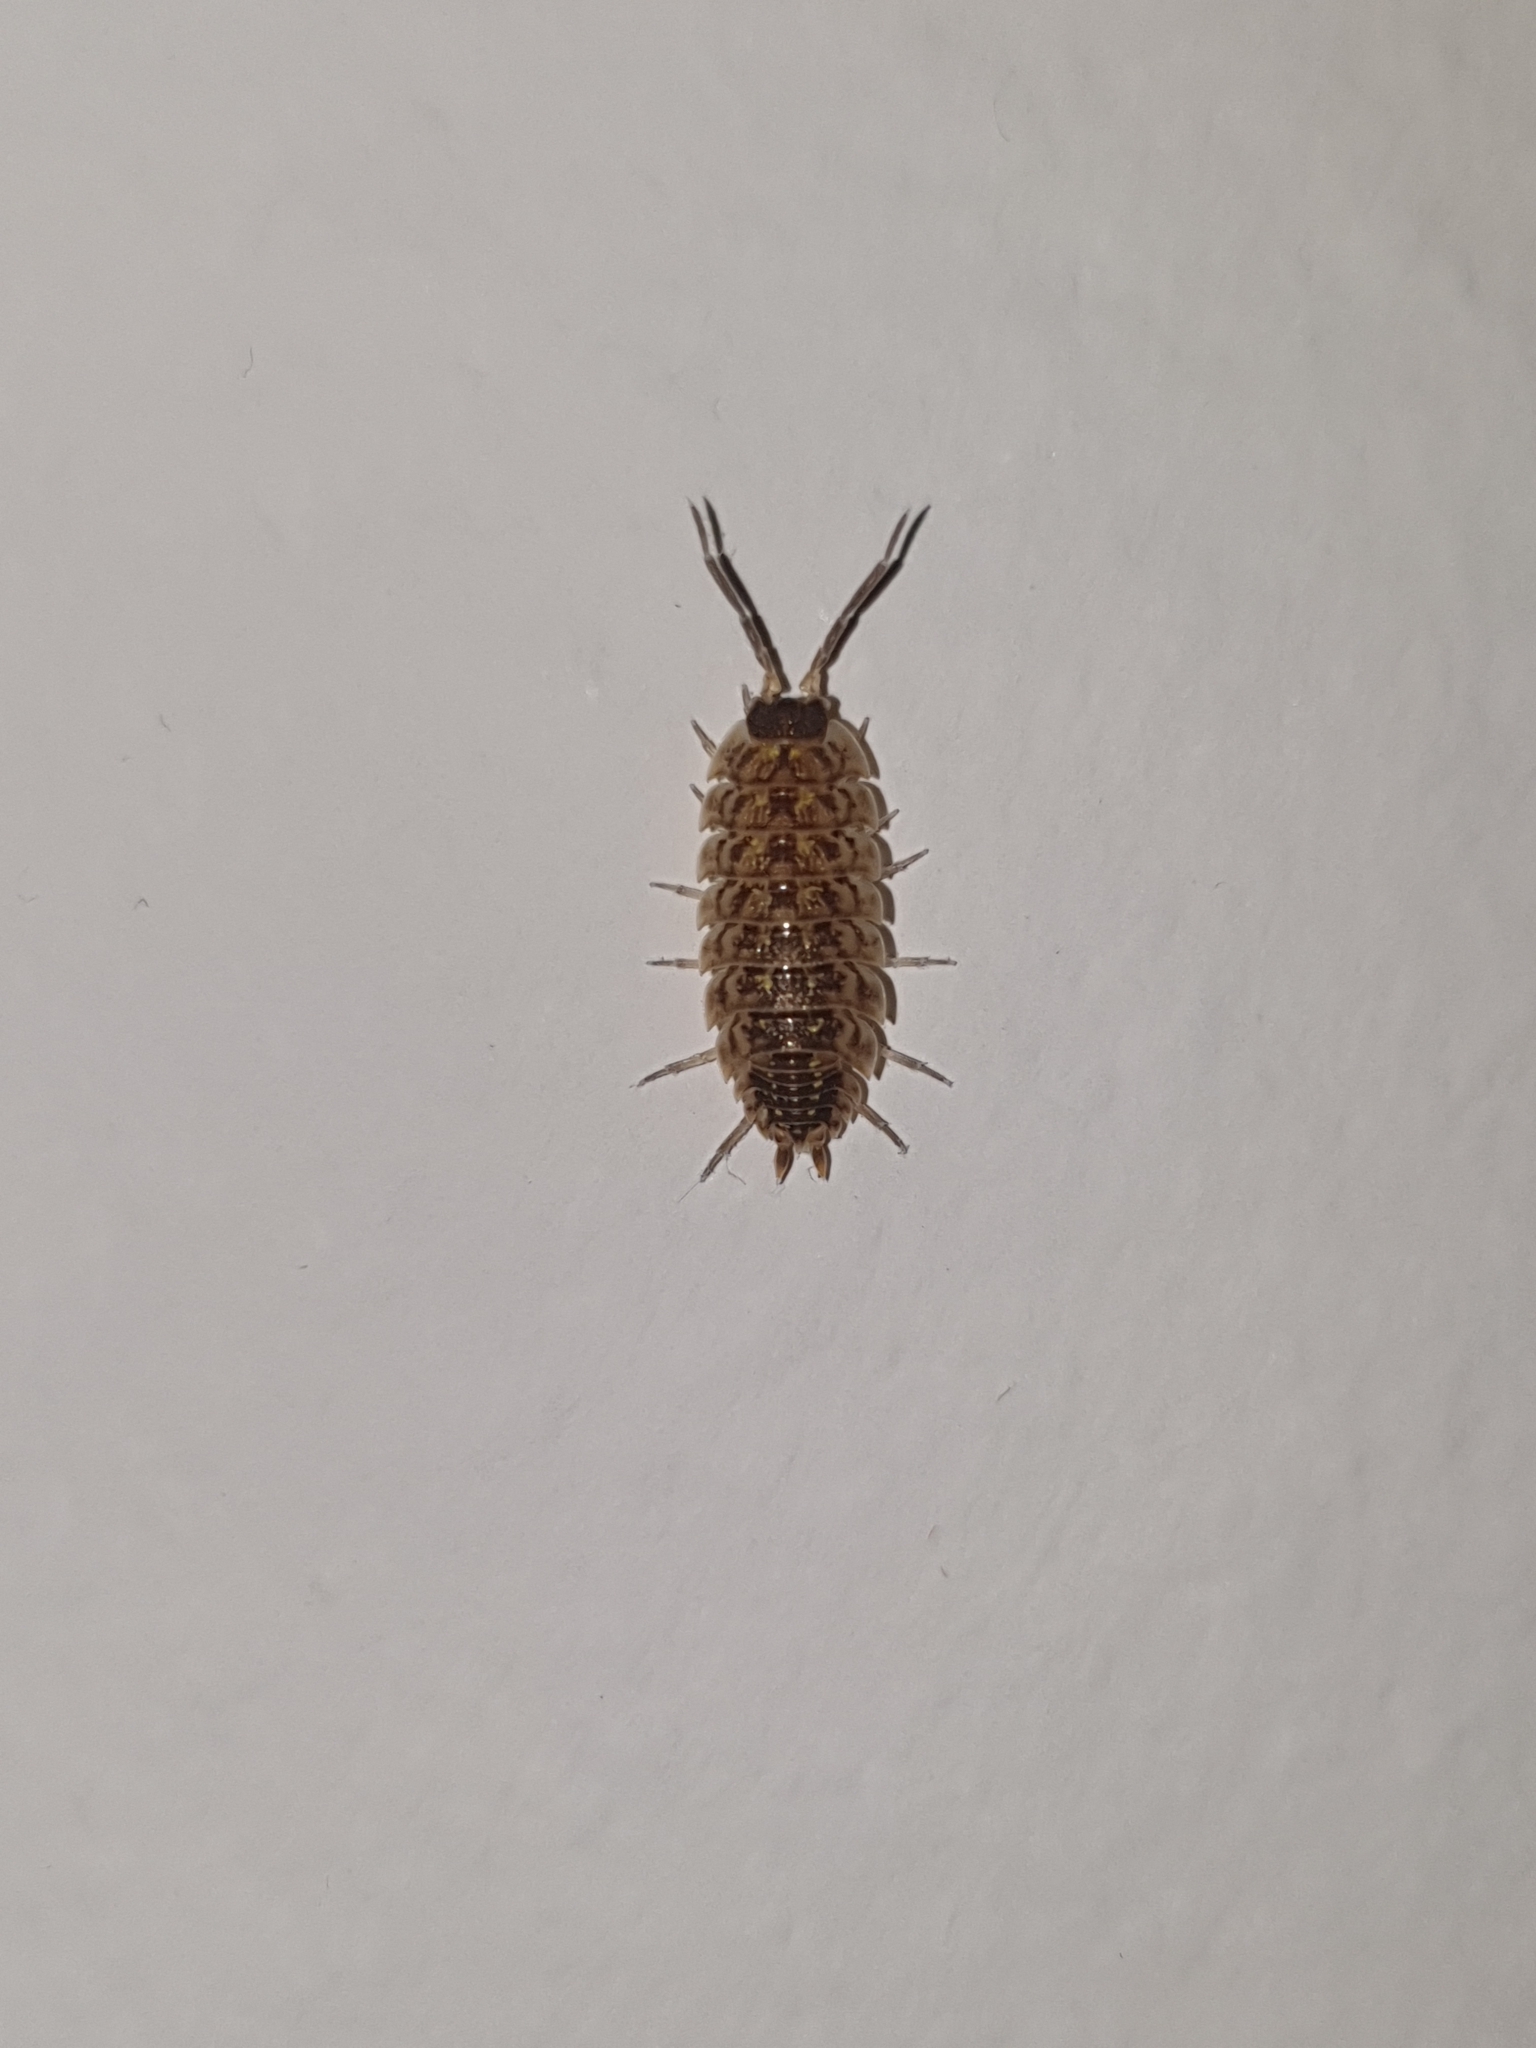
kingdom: Animalia
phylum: Arthropoda
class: Malacostraca
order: Isopoda
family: Porcellionidae
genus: Porcellio
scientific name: Porcellio spinicornis
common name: Painted woodlouse
